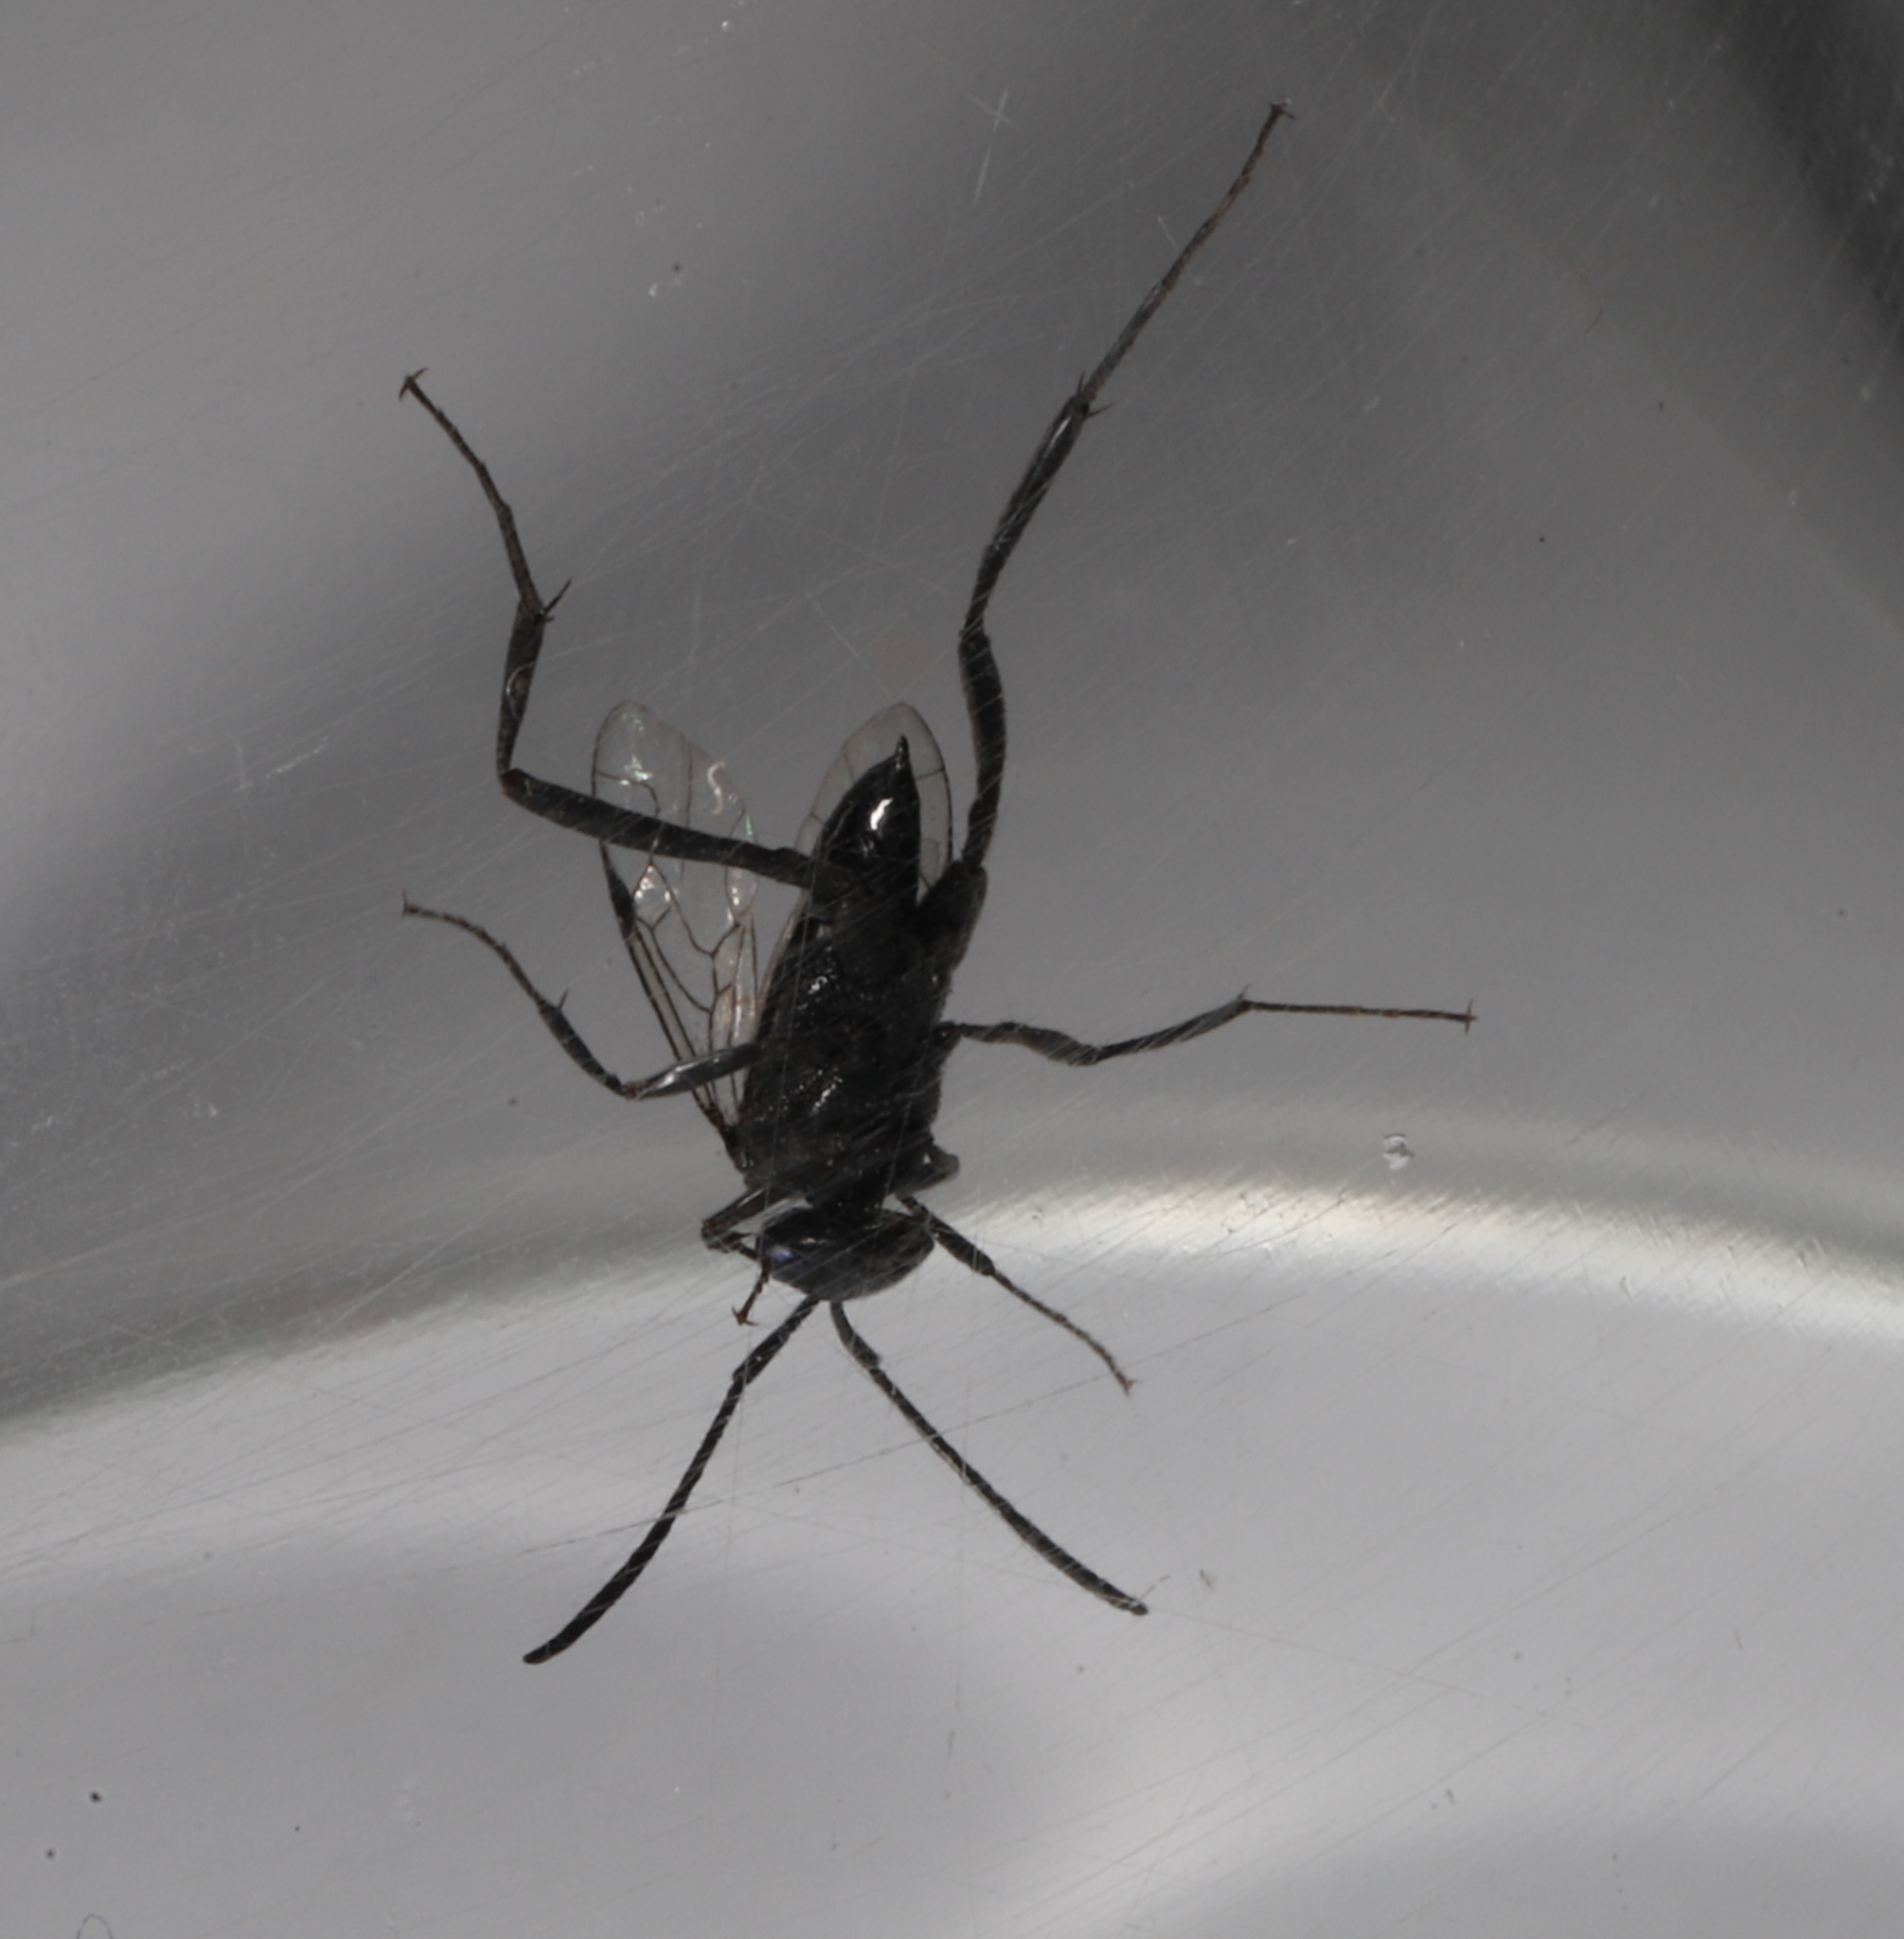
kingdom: Animalia
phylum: Arthropoda
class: Insecta
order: Hymenoptera
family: Evaniidae
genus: Evania
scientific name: Evania appendigaster
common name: Ensign wasp
